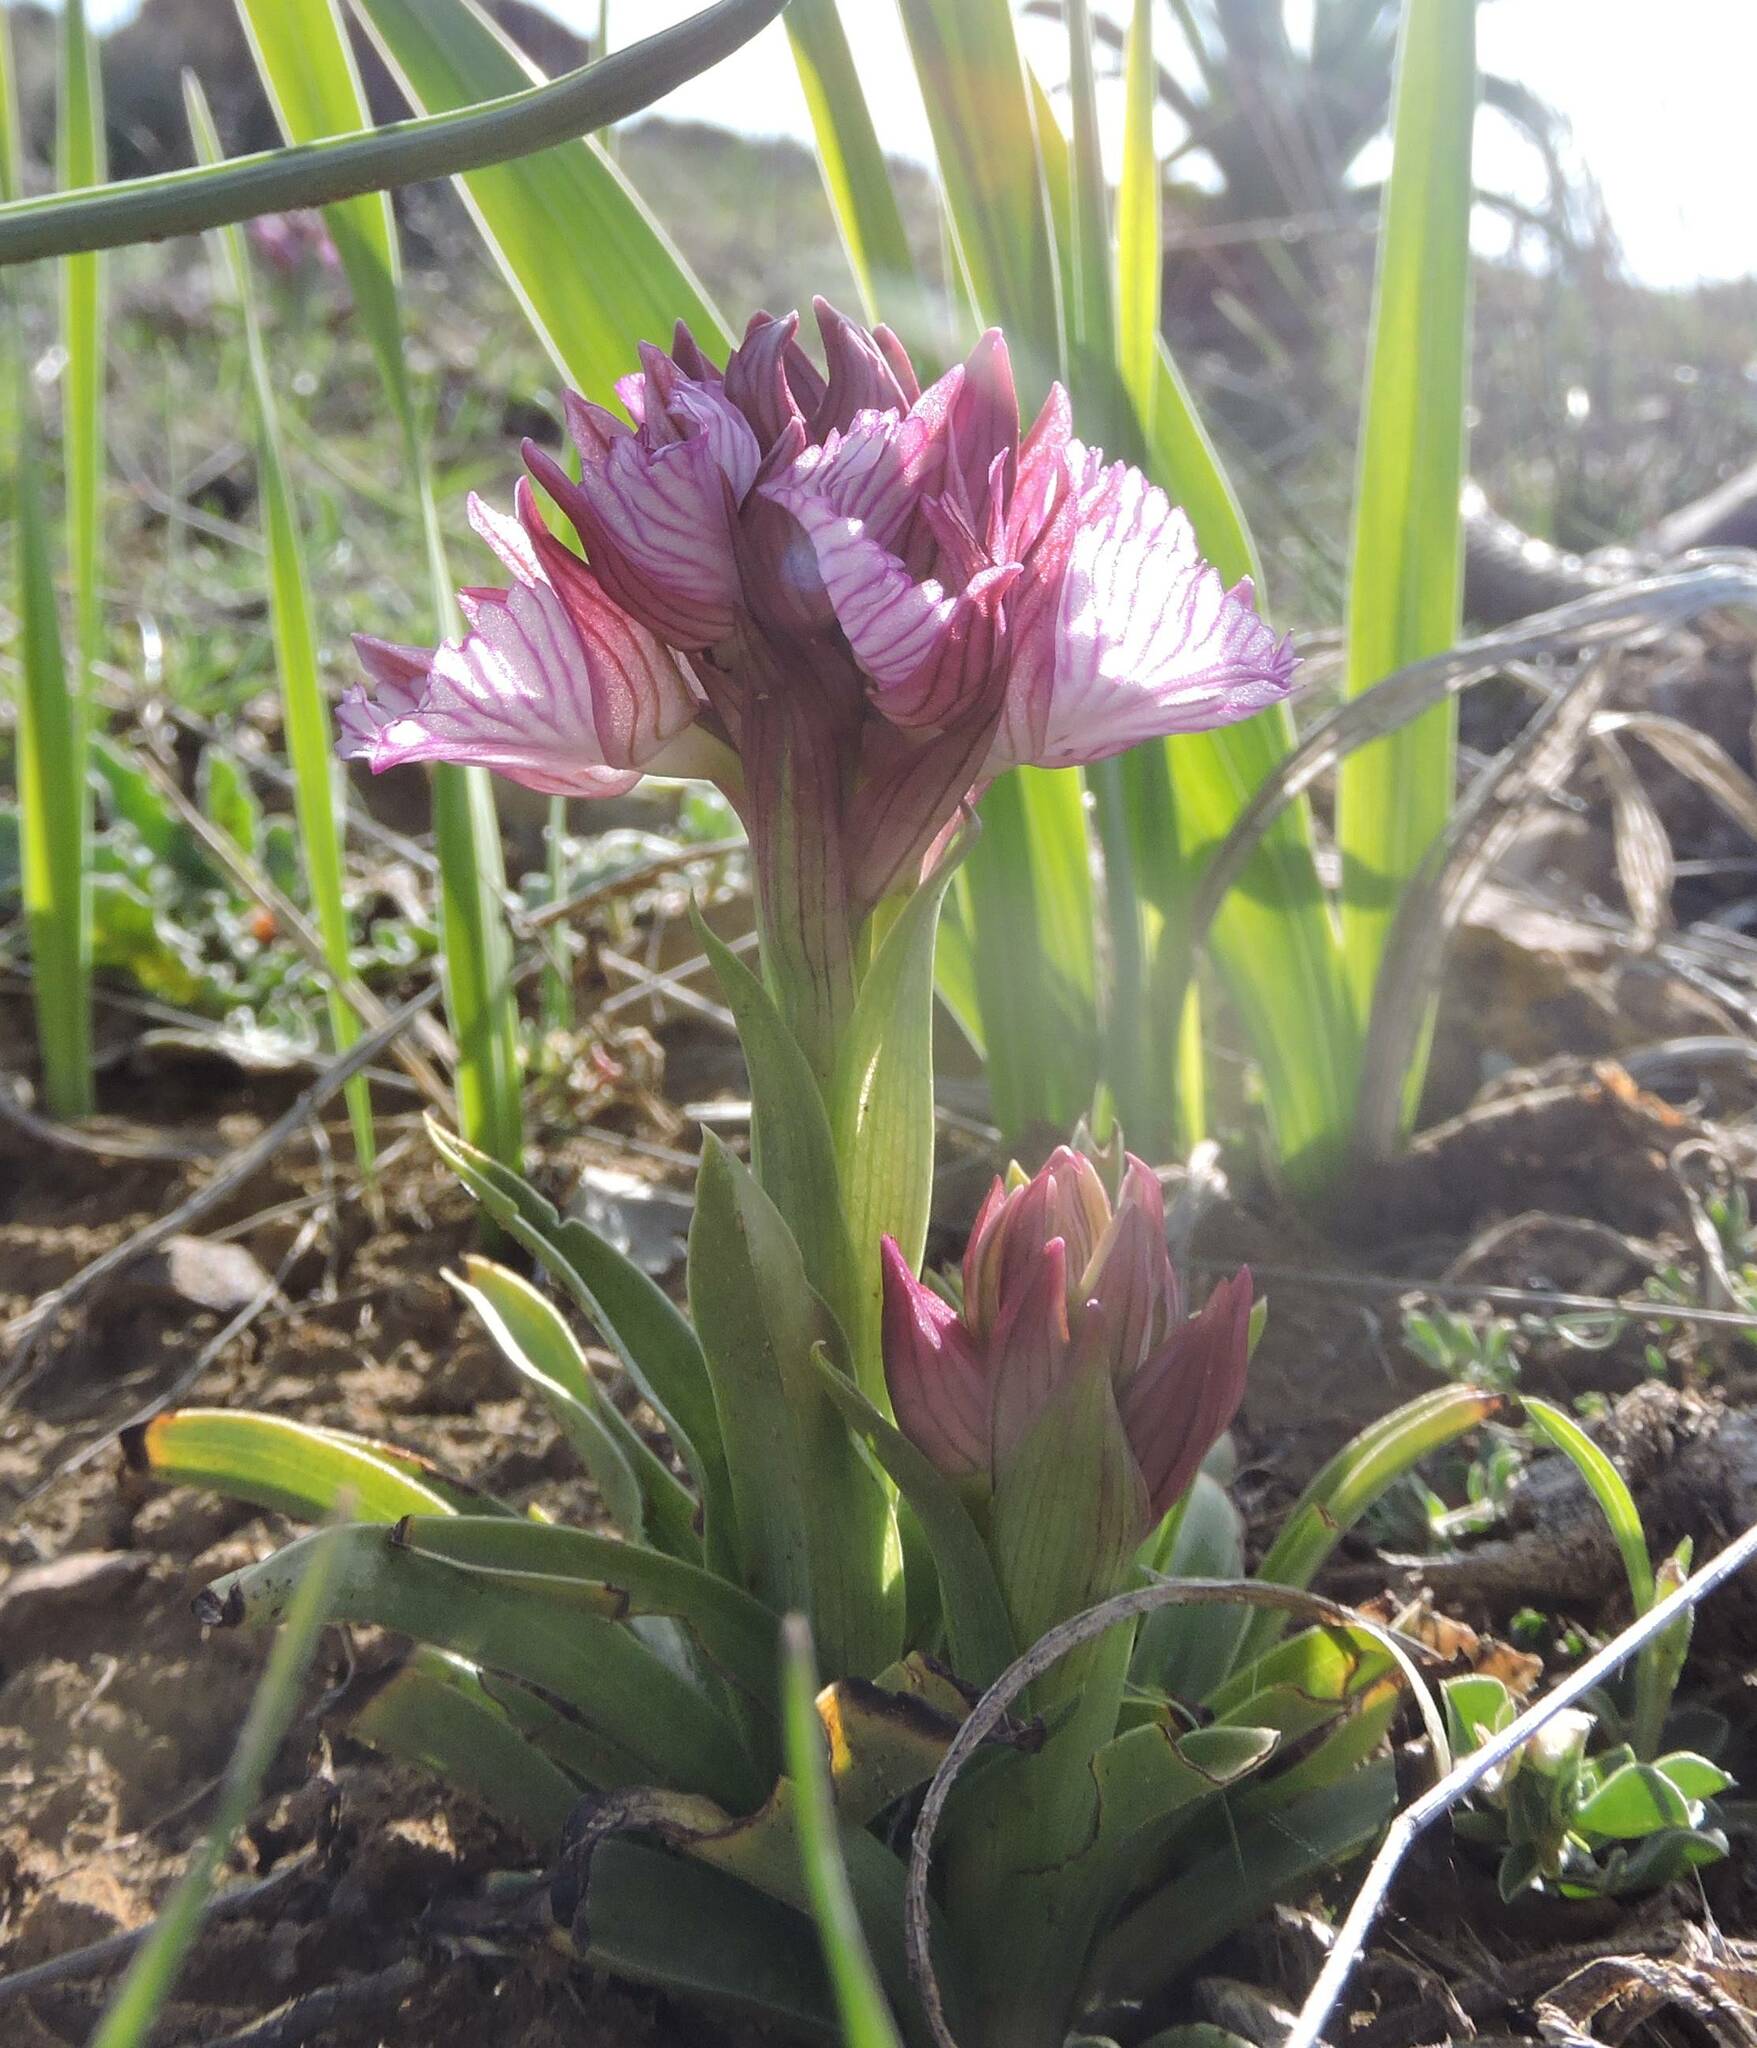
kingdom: Plantae
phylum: Tracheophyta
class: Liliopsida
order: Asparagales
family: Orchidaceae
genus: Anacamptis
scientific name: Anacamptis papilionacea
